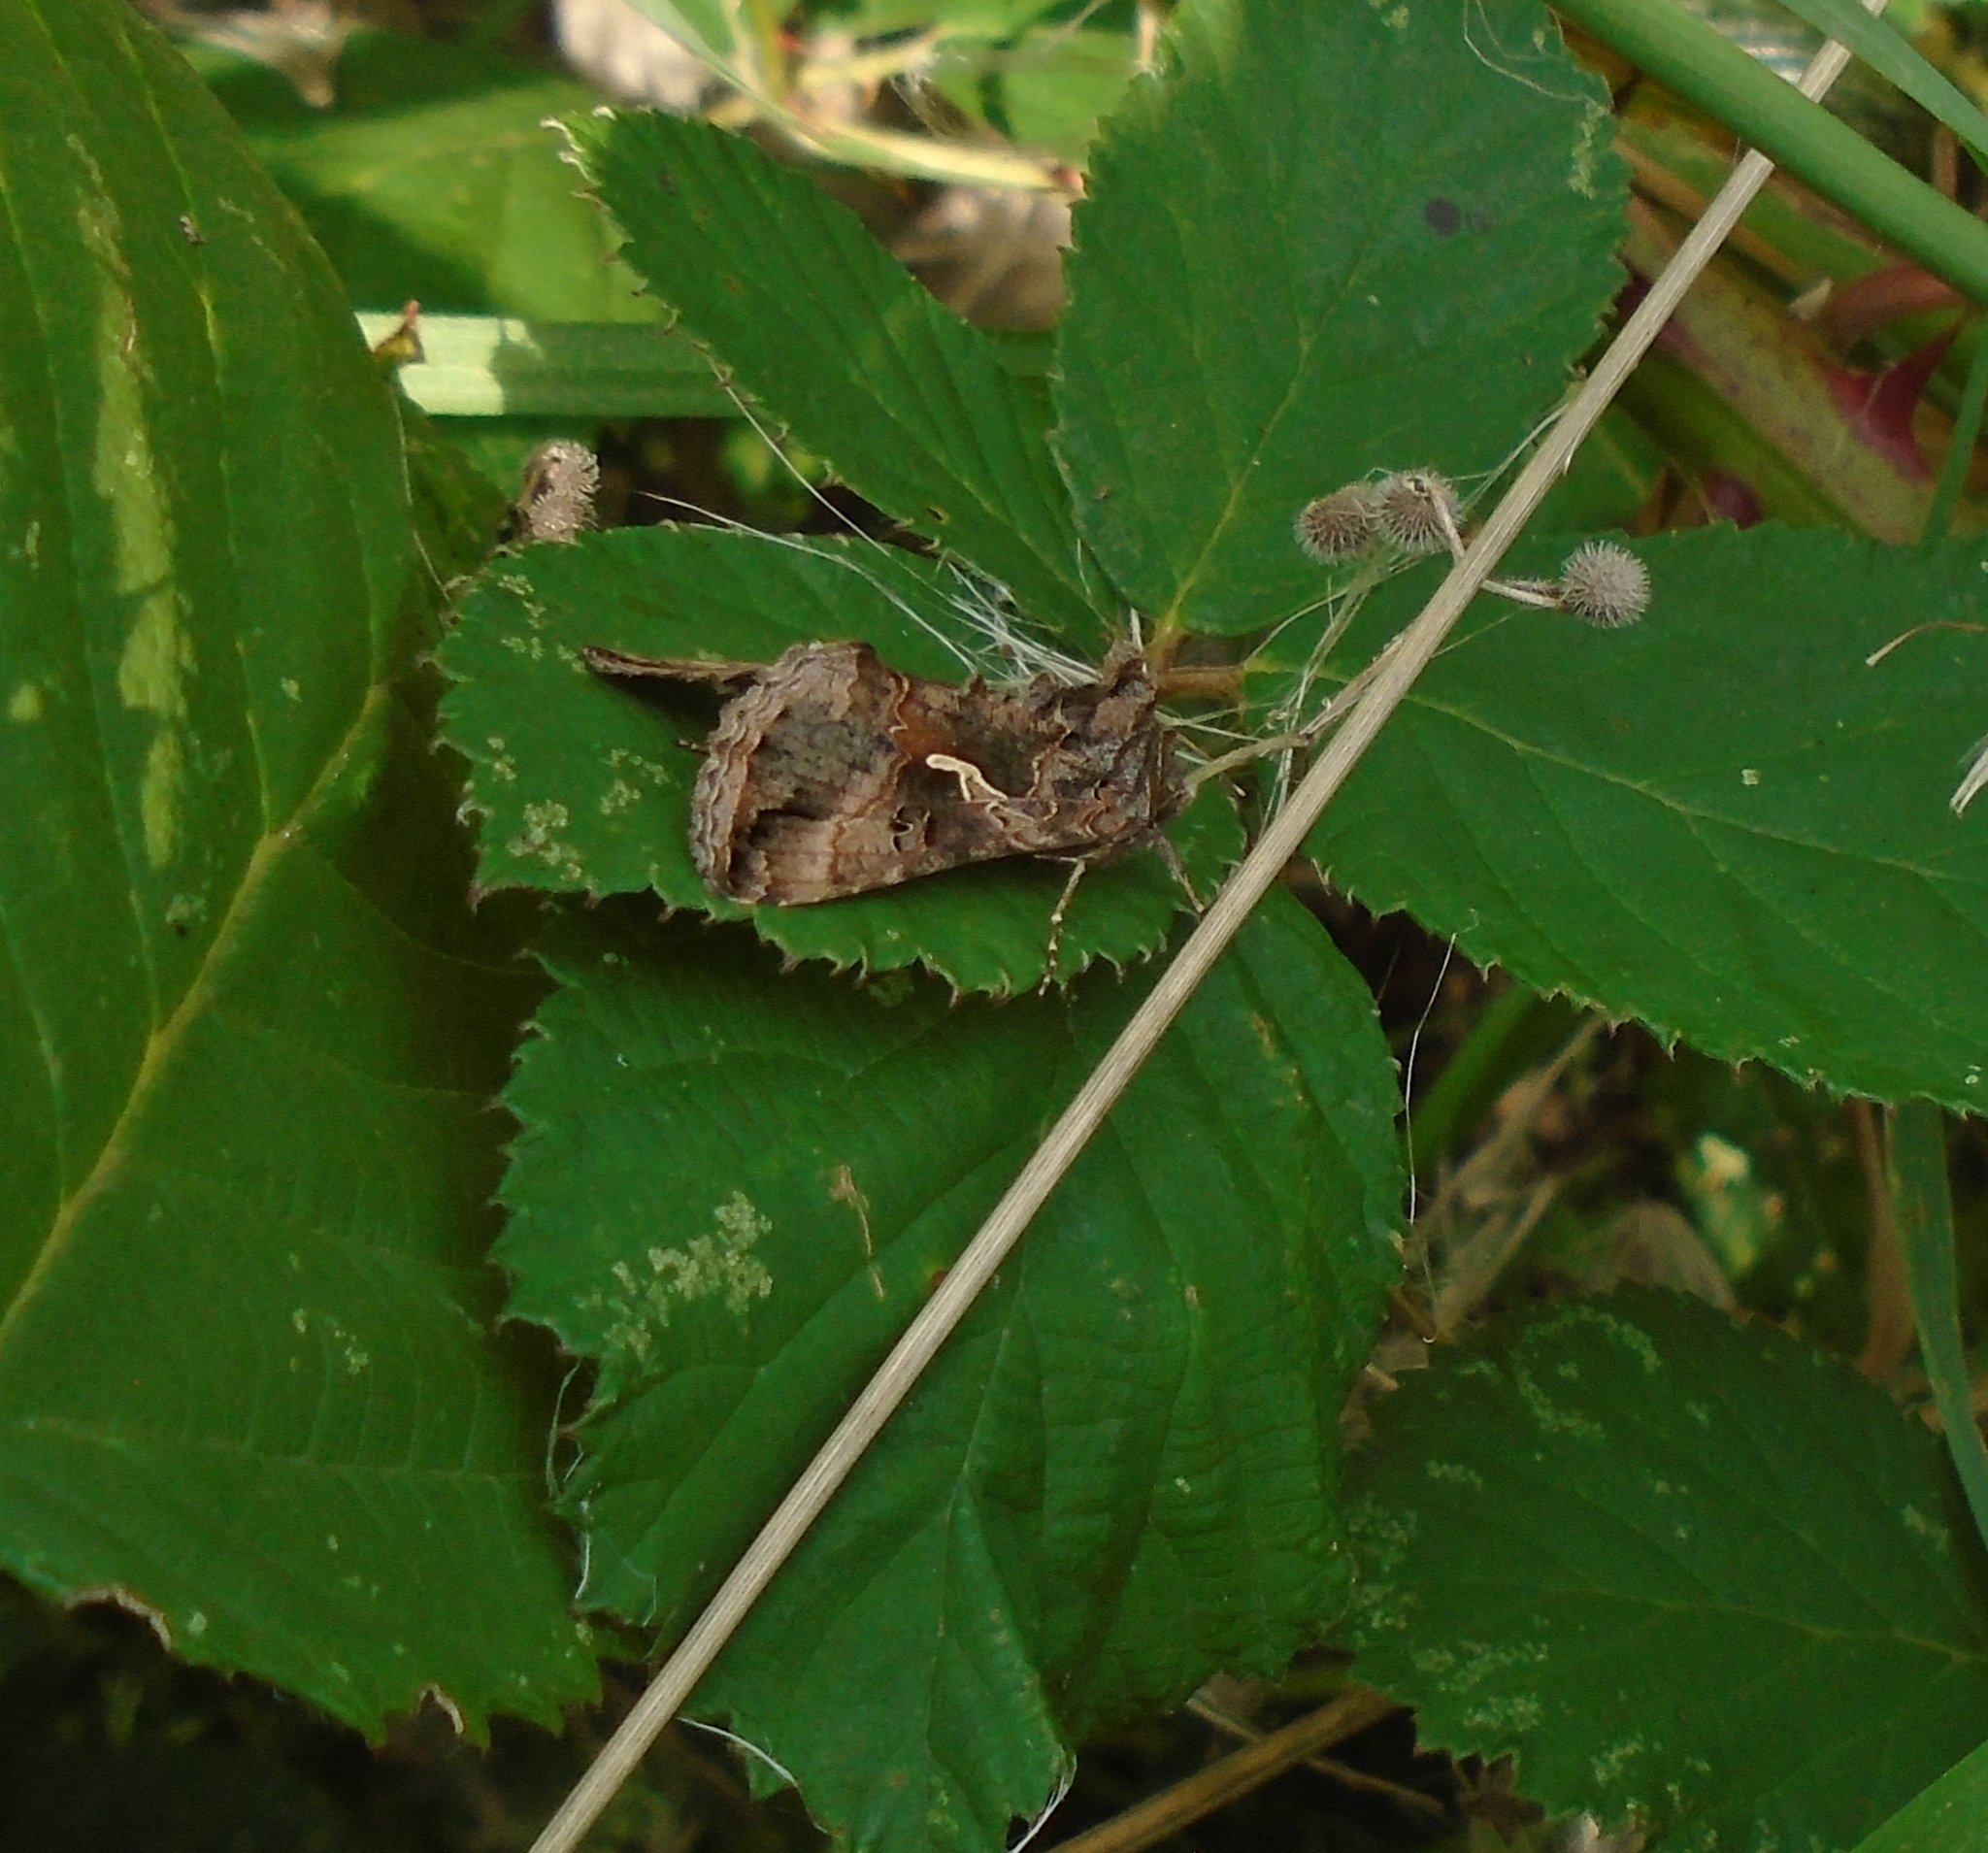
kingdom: Animalia
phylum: Arthropoda
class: Insecta
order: Lepidoptera
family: Noctuidae
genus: Autographa
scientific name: Autographa gamma
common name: Silver y
